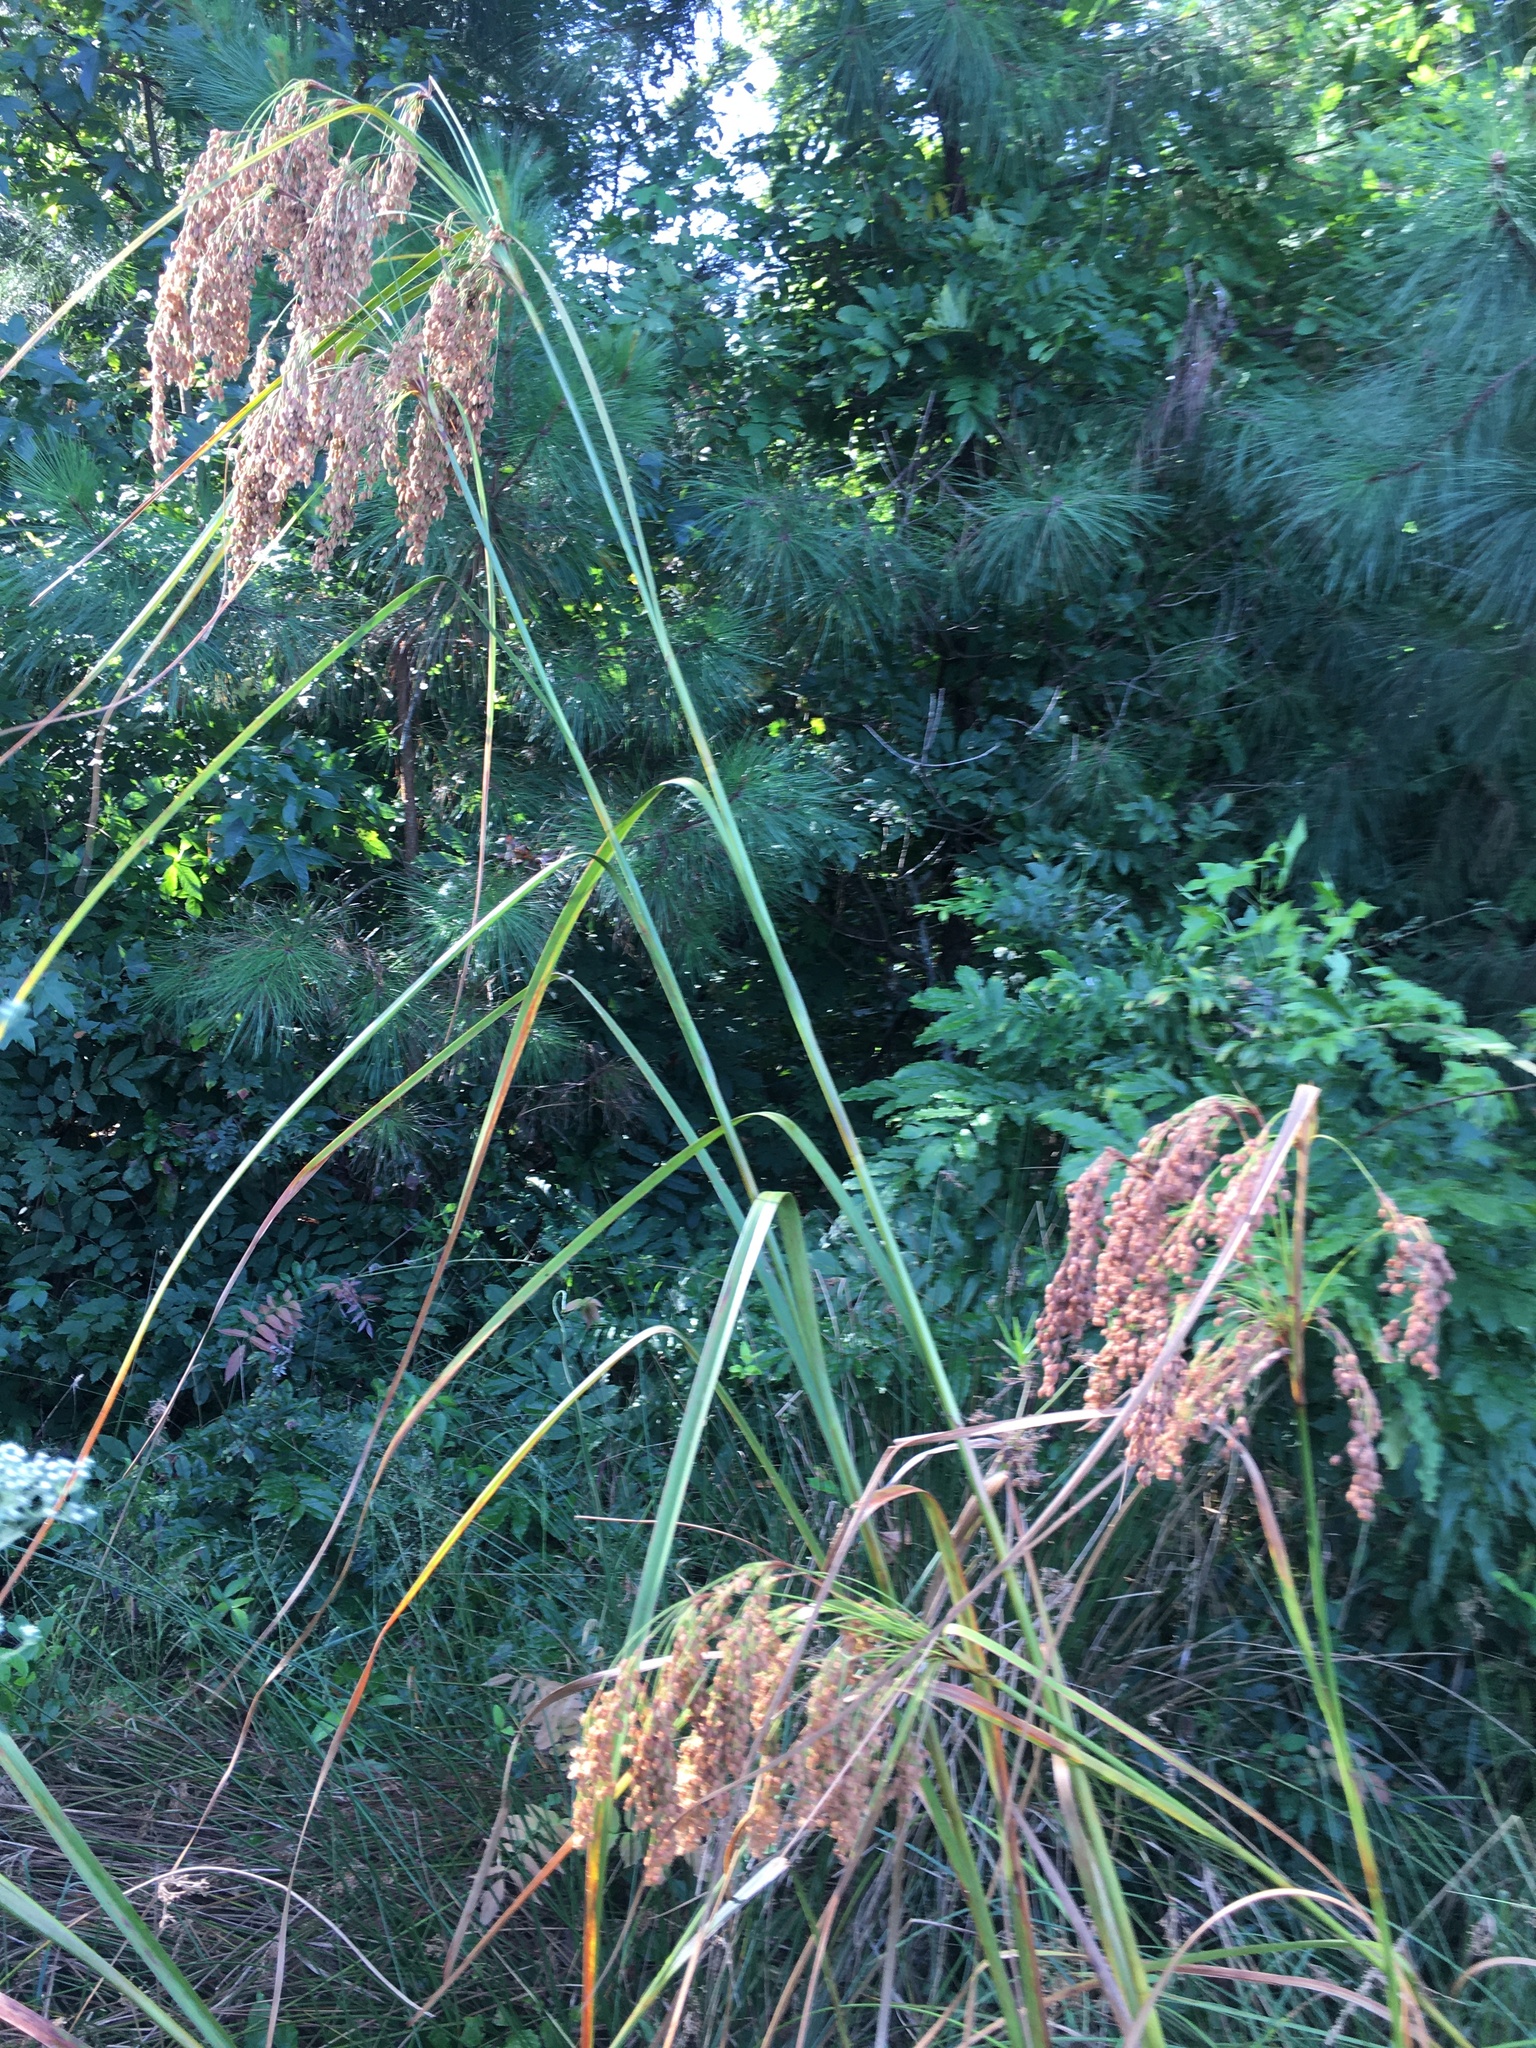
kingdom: Plantae
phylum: Tracheophyta
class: Liliopsida
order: Poales
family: Cyperaceae
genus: Scirpus
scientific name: Scirpus cyperinus
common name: Black-sheathed bulrush
